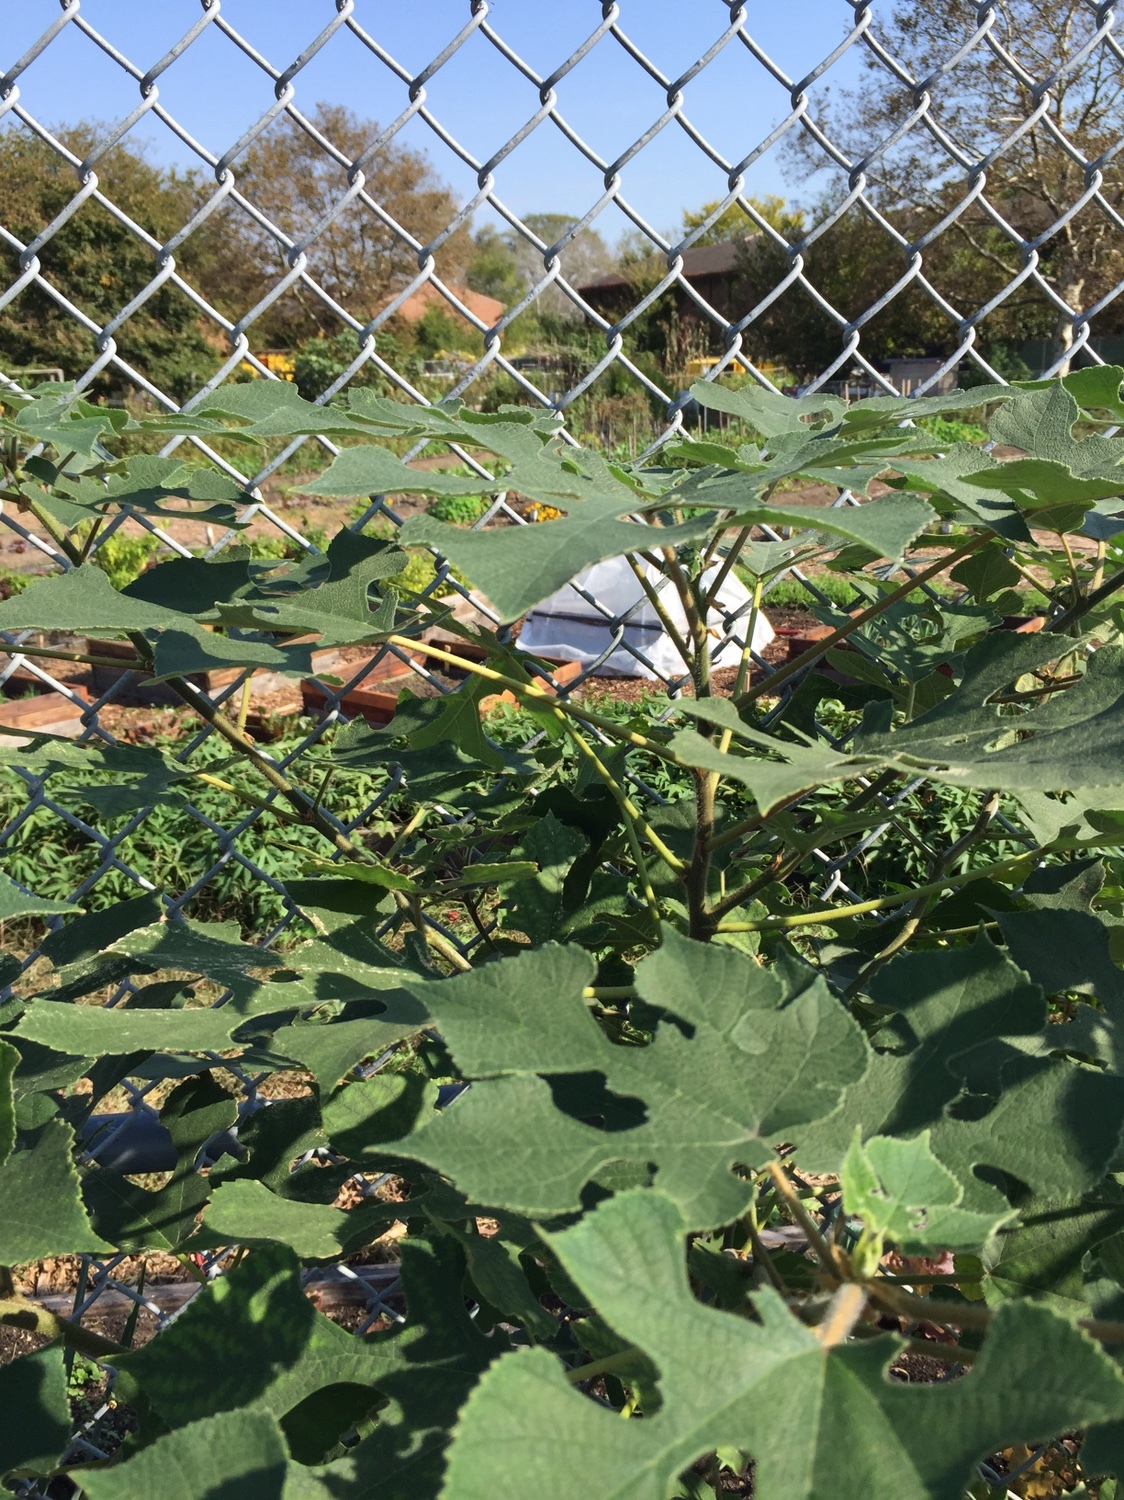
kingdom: Plantae
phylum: Tracheophyta
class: Magnoliopsida
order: Rosales
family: Moraceae
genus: Broussonetia
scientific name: Broussonetia papyrifera
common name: Paper mulberry
